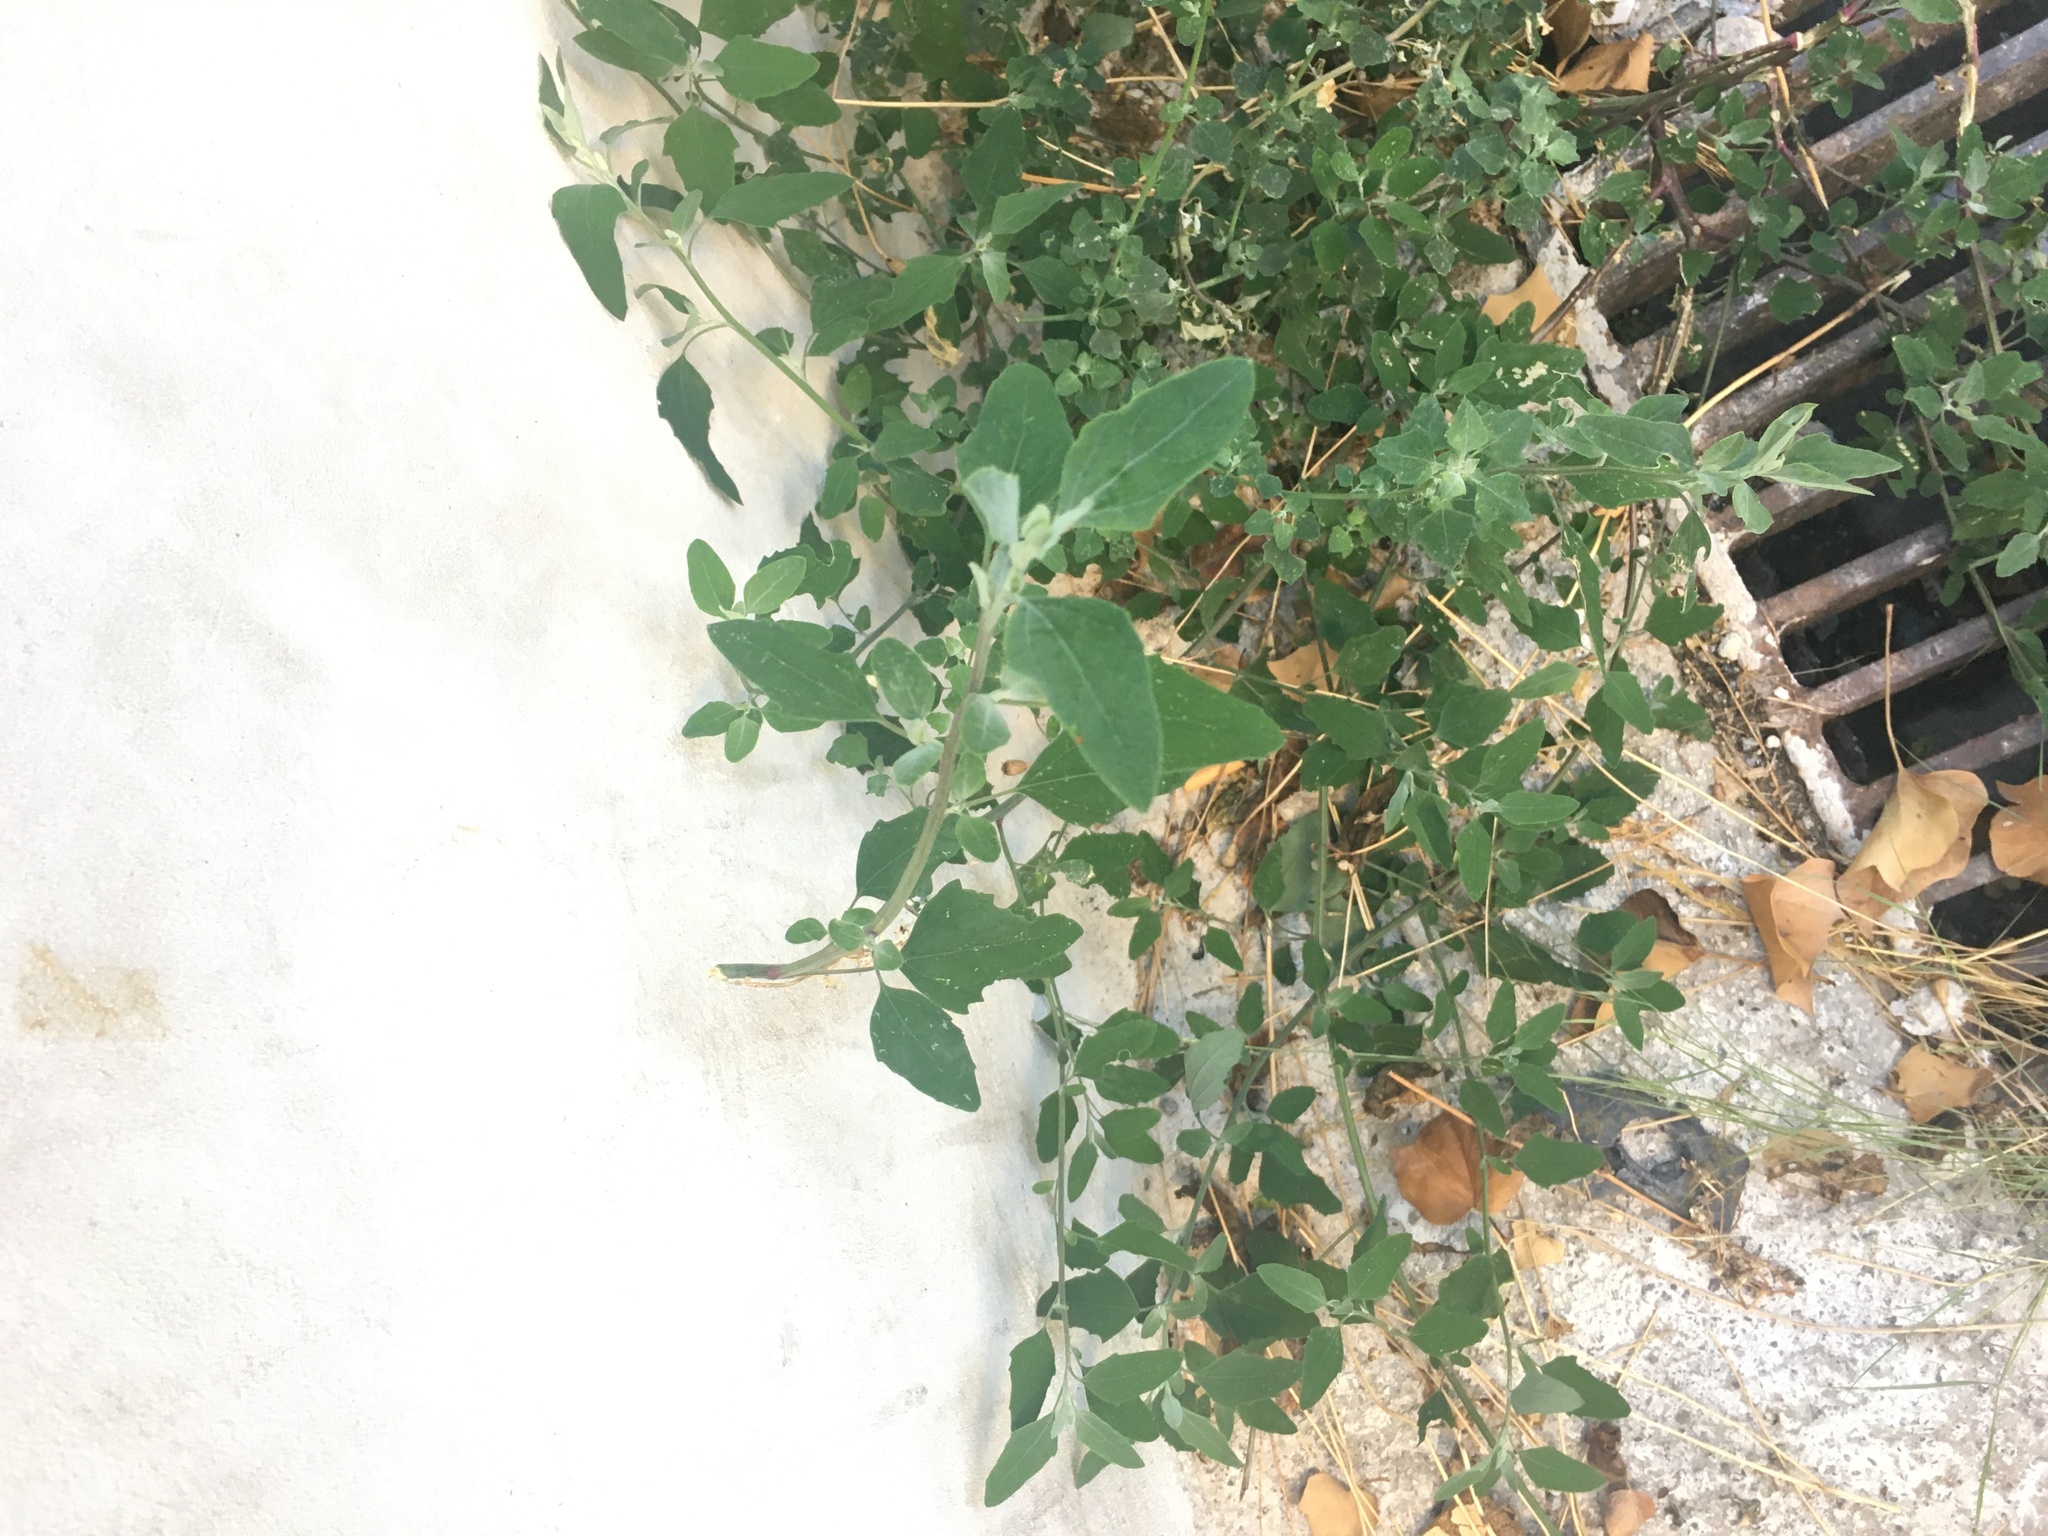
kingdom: Plantae
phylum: Tracheophyta
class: Magnoliopsida
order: Caryophyllales
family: Amaranthaceae
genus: Chenopodium
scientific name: Chenopodium album
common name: Fat-hen
